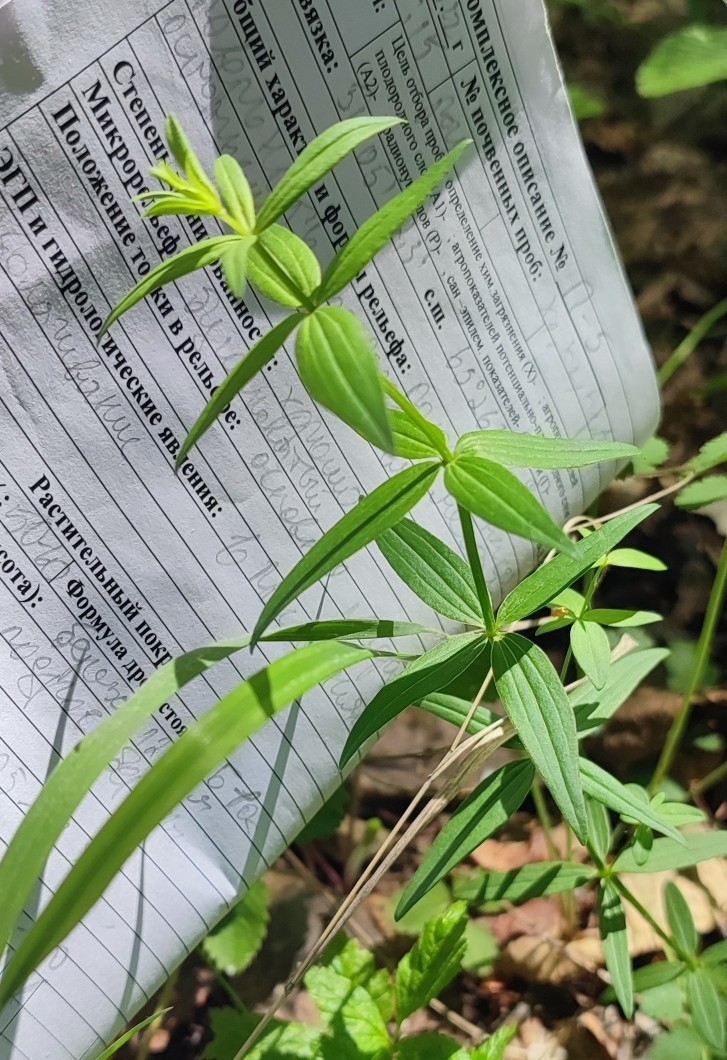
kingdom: Plantae
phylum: Tracheophyta
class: Magnoliopsida
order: Gentianales
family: Rubiaceae
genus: Galium
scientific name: Galium boreale
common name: Northern bedstraw
